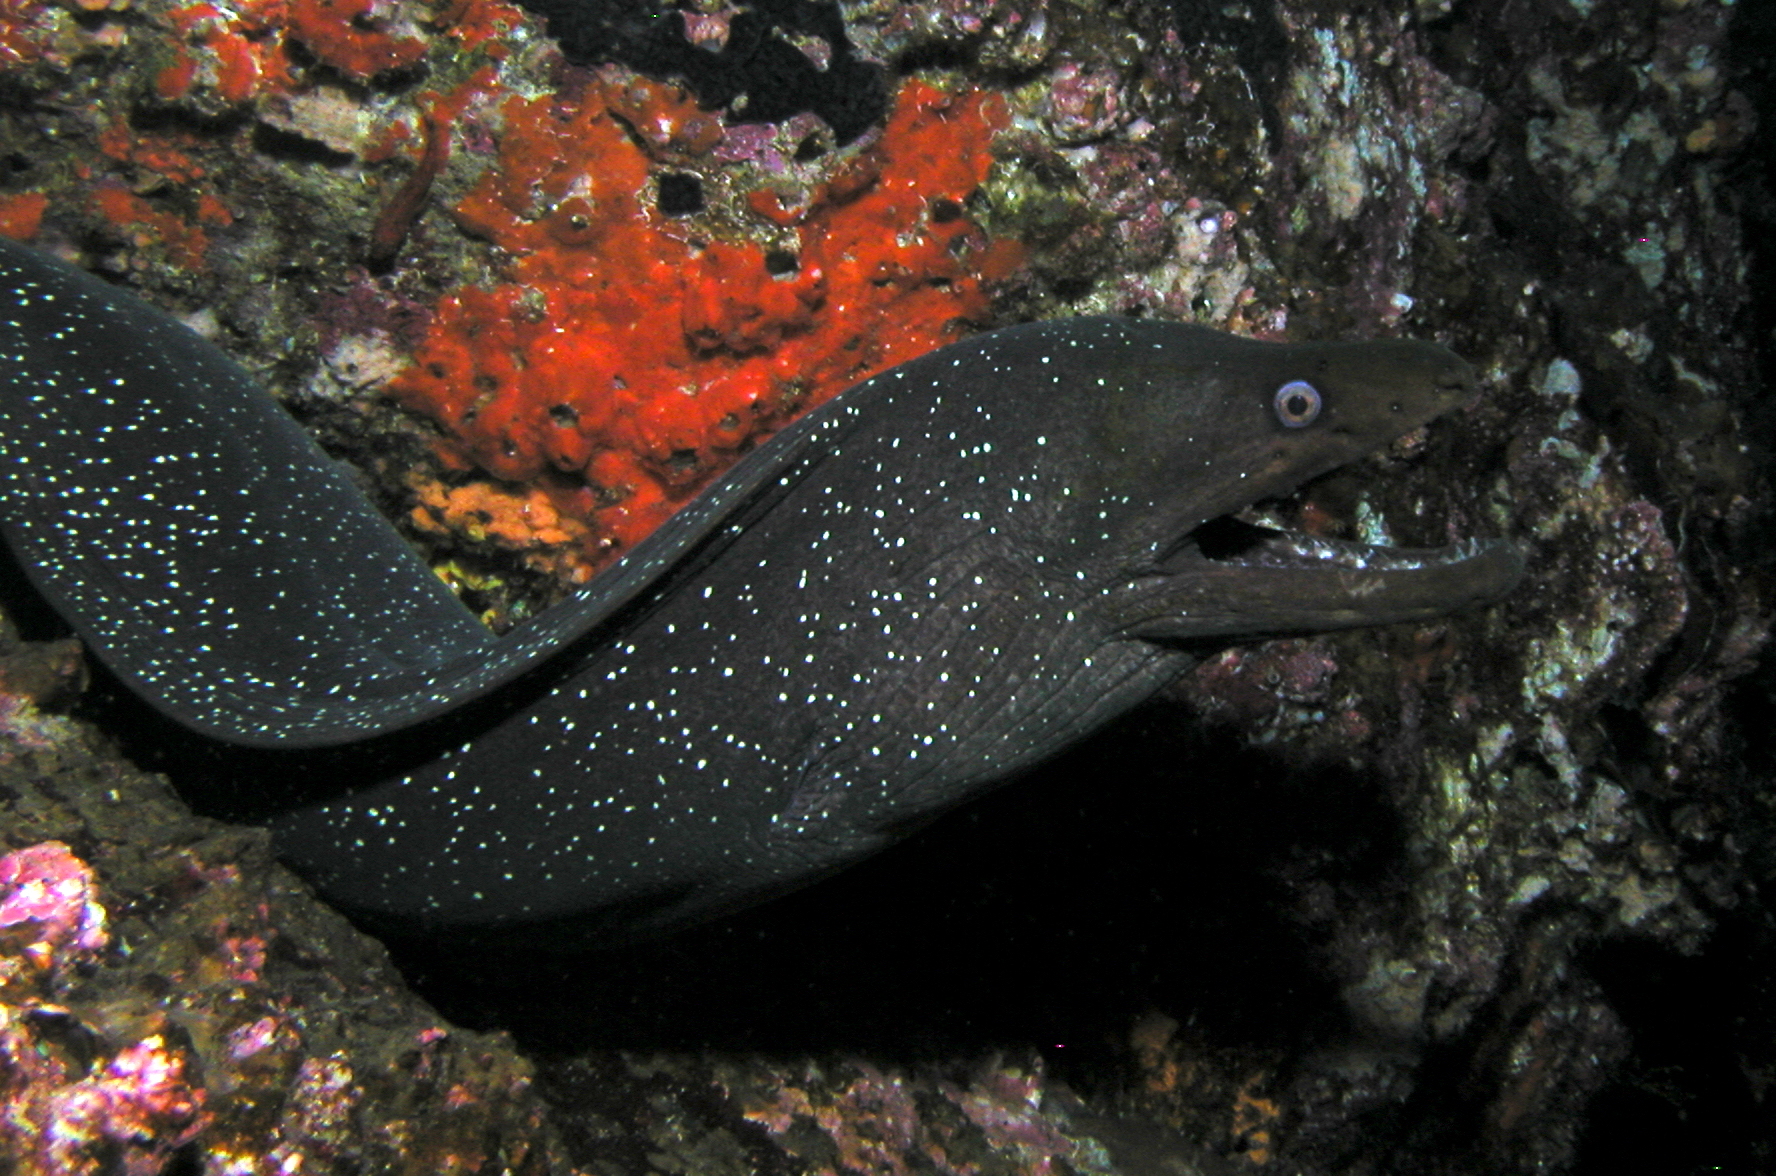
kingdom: Animalia
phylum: Chordata
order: Anguilliformes
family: Muraenidae
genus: Gymnothorax
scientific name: Gymnothorax dovii
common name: Finespotted moray
